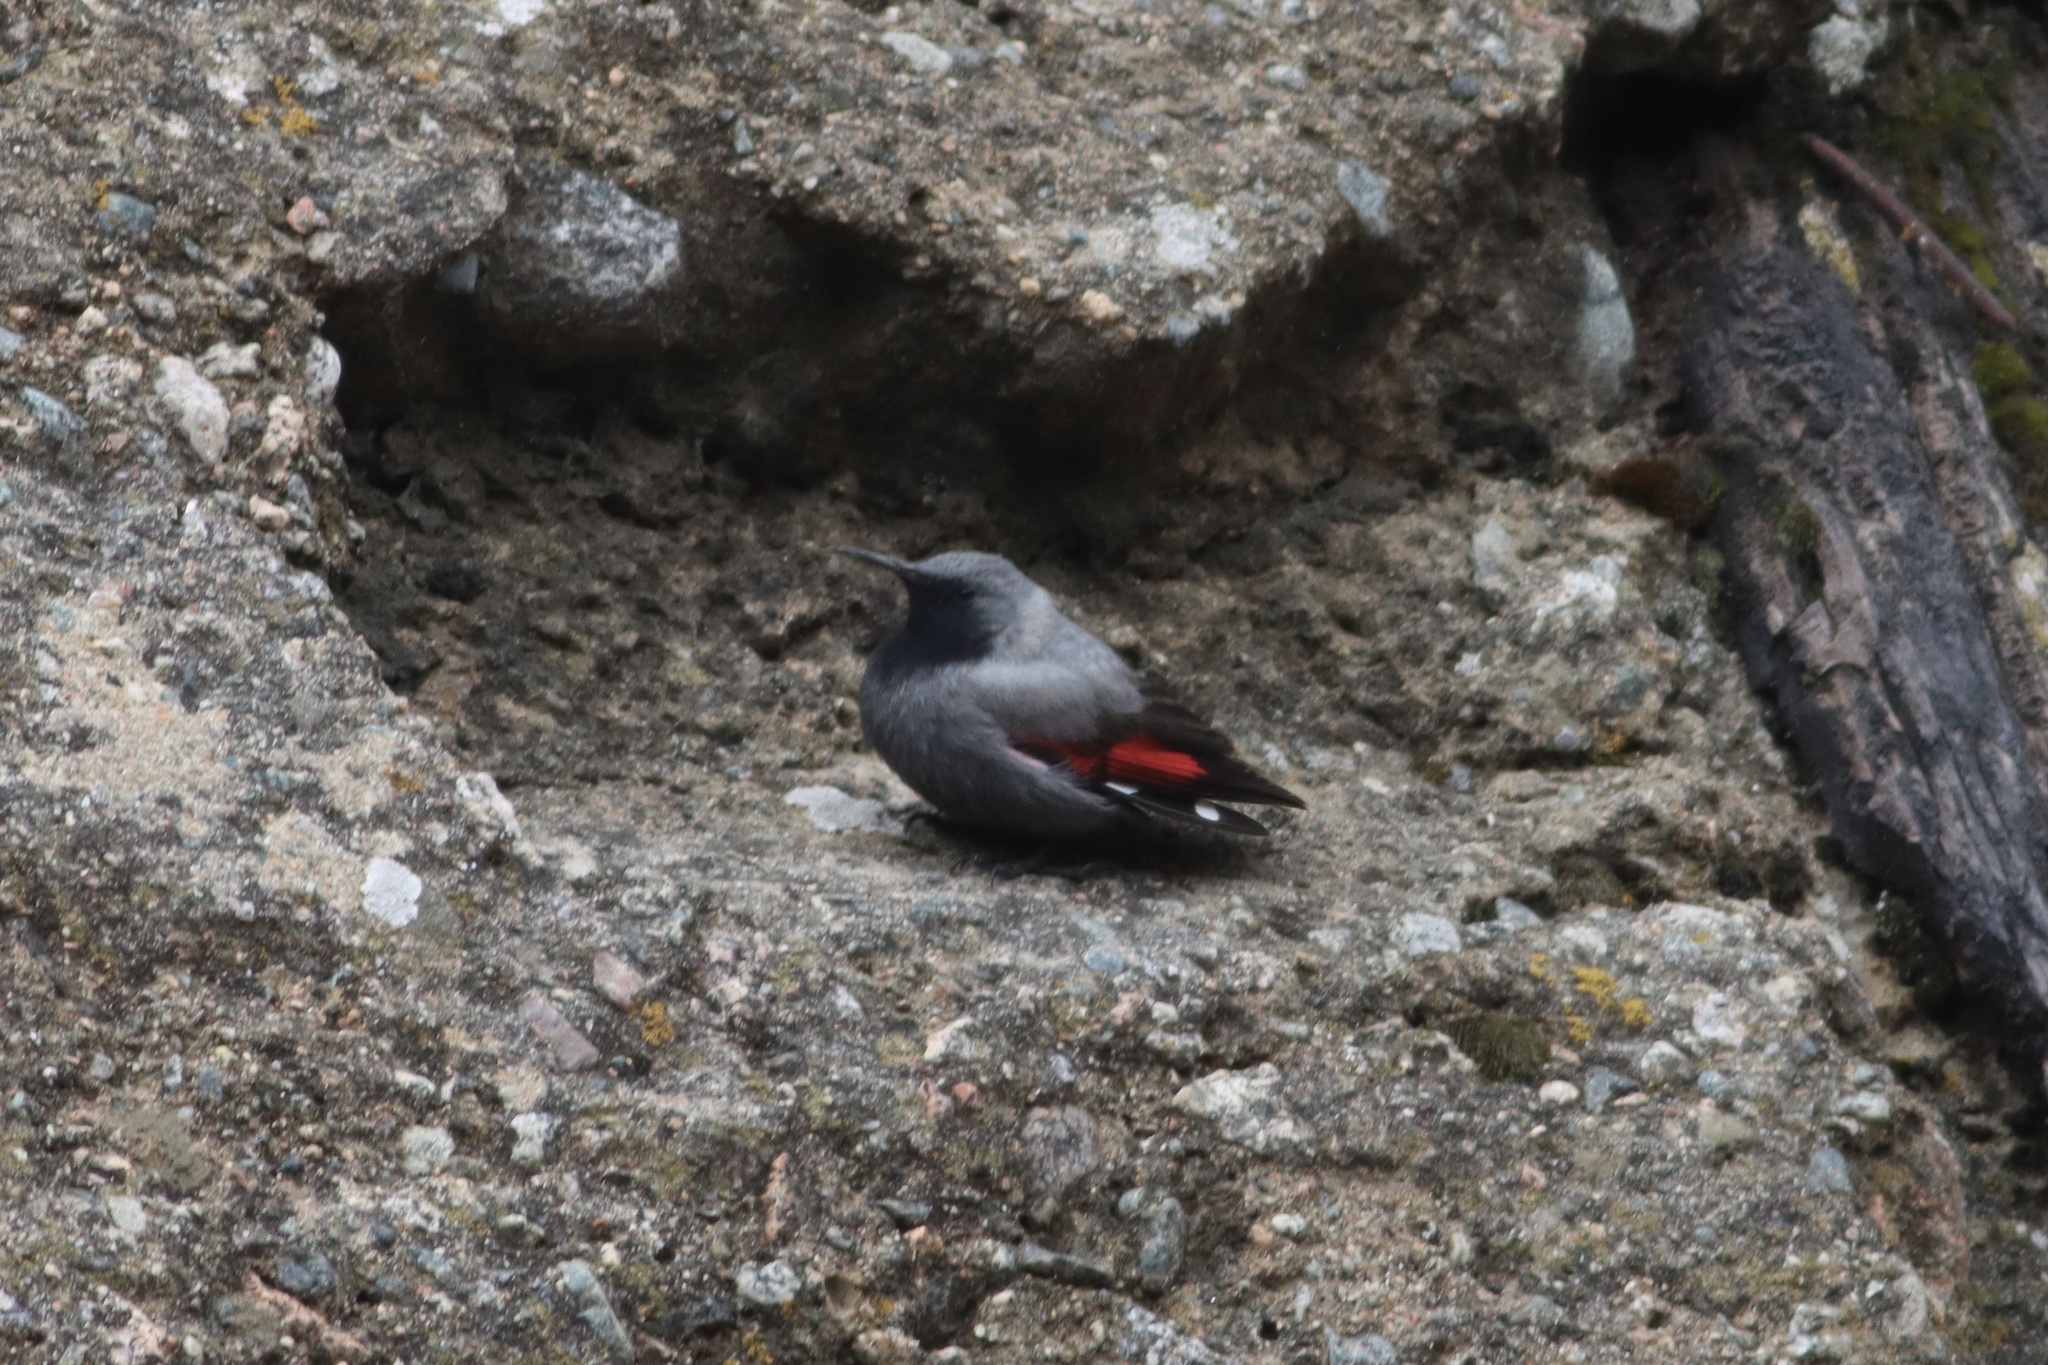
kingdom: Animalia
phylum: Chordata
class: Aves
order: Passeriformes
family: Tichodromidae
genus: Tichodroma
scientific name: Tichodroma muraria
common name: Wallcreeper
